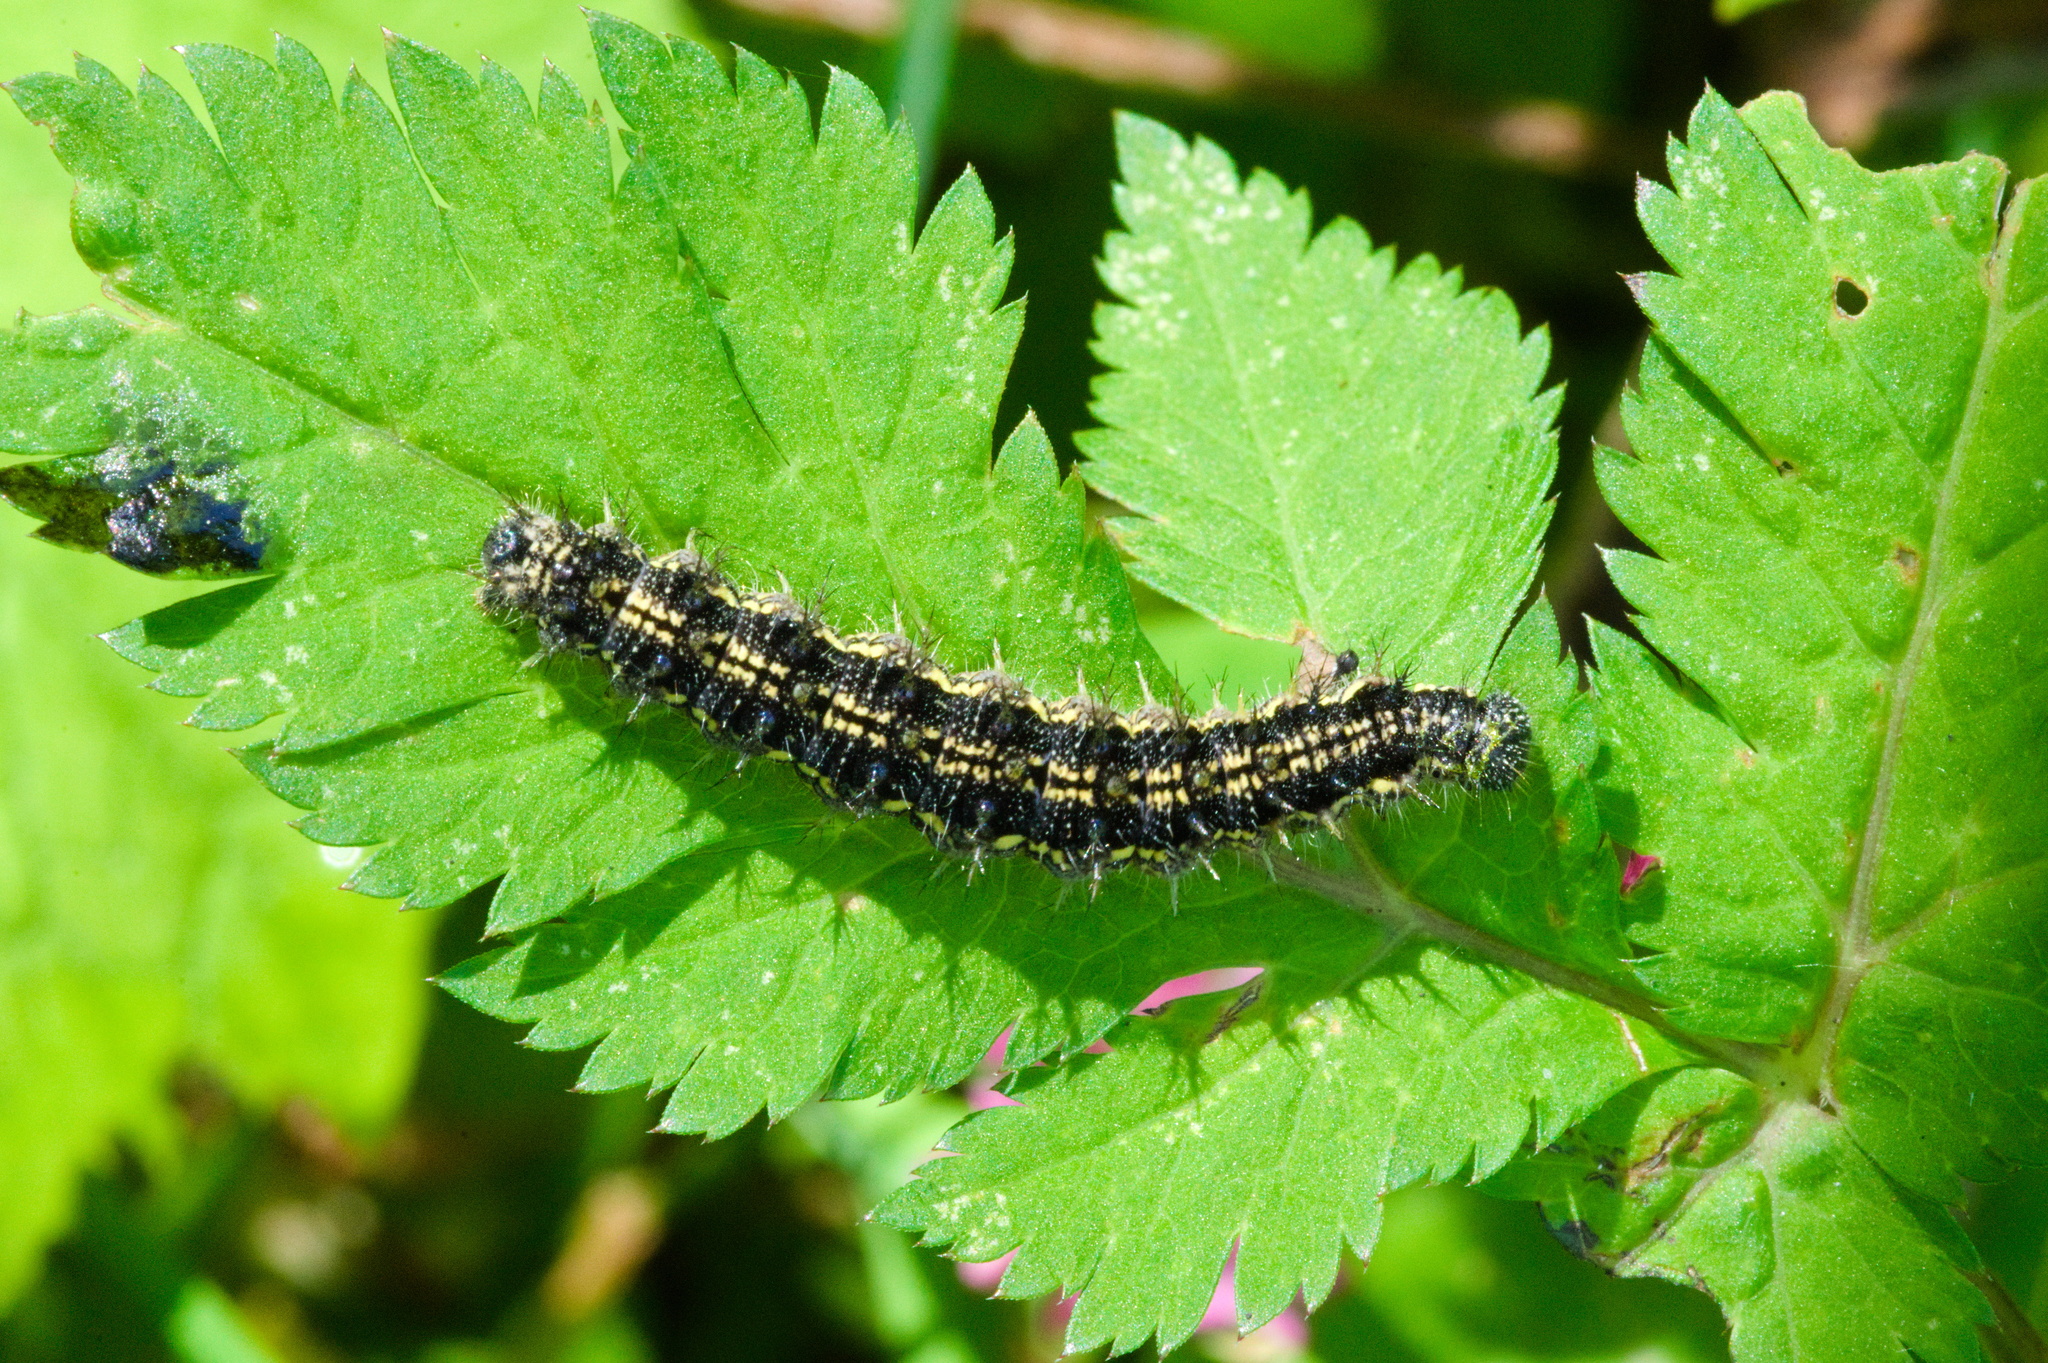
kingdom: Animalia
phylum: Arthropoda
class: Insecta
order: Lepidoptera
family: Nymphalidae
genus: Aglais
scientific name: Aglais urticae
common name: Small tortoiseshell
